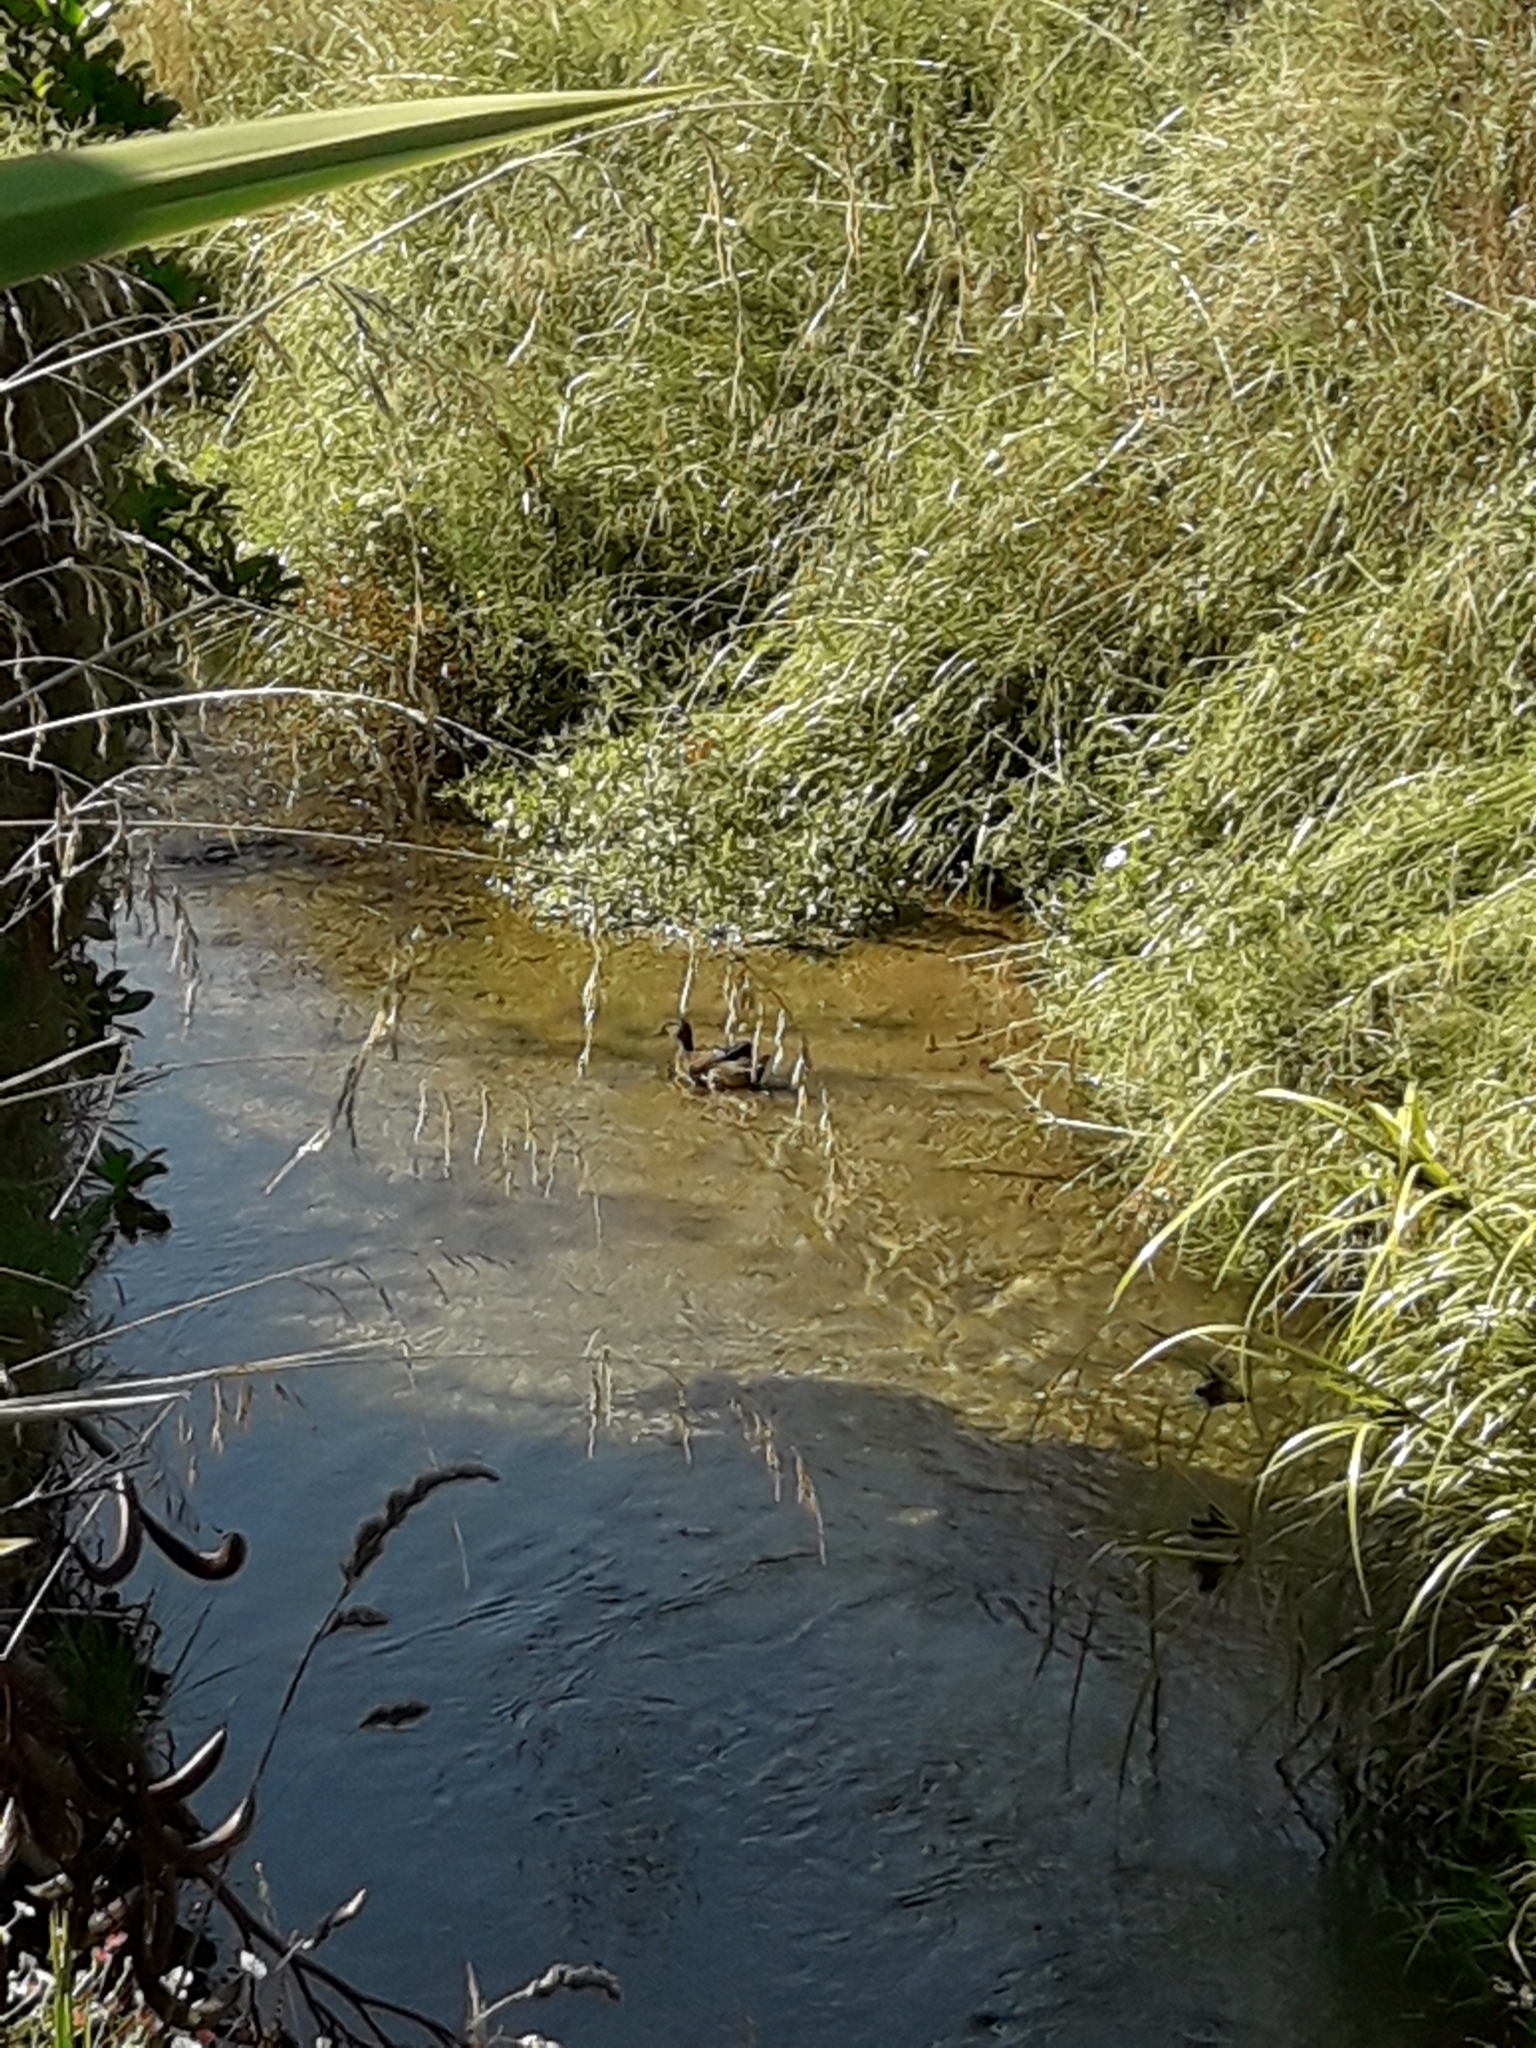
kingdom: Animalia
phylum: Chordata
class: Aves
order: Anseriformes
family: Anatidae
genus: Anas
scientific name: Anas
